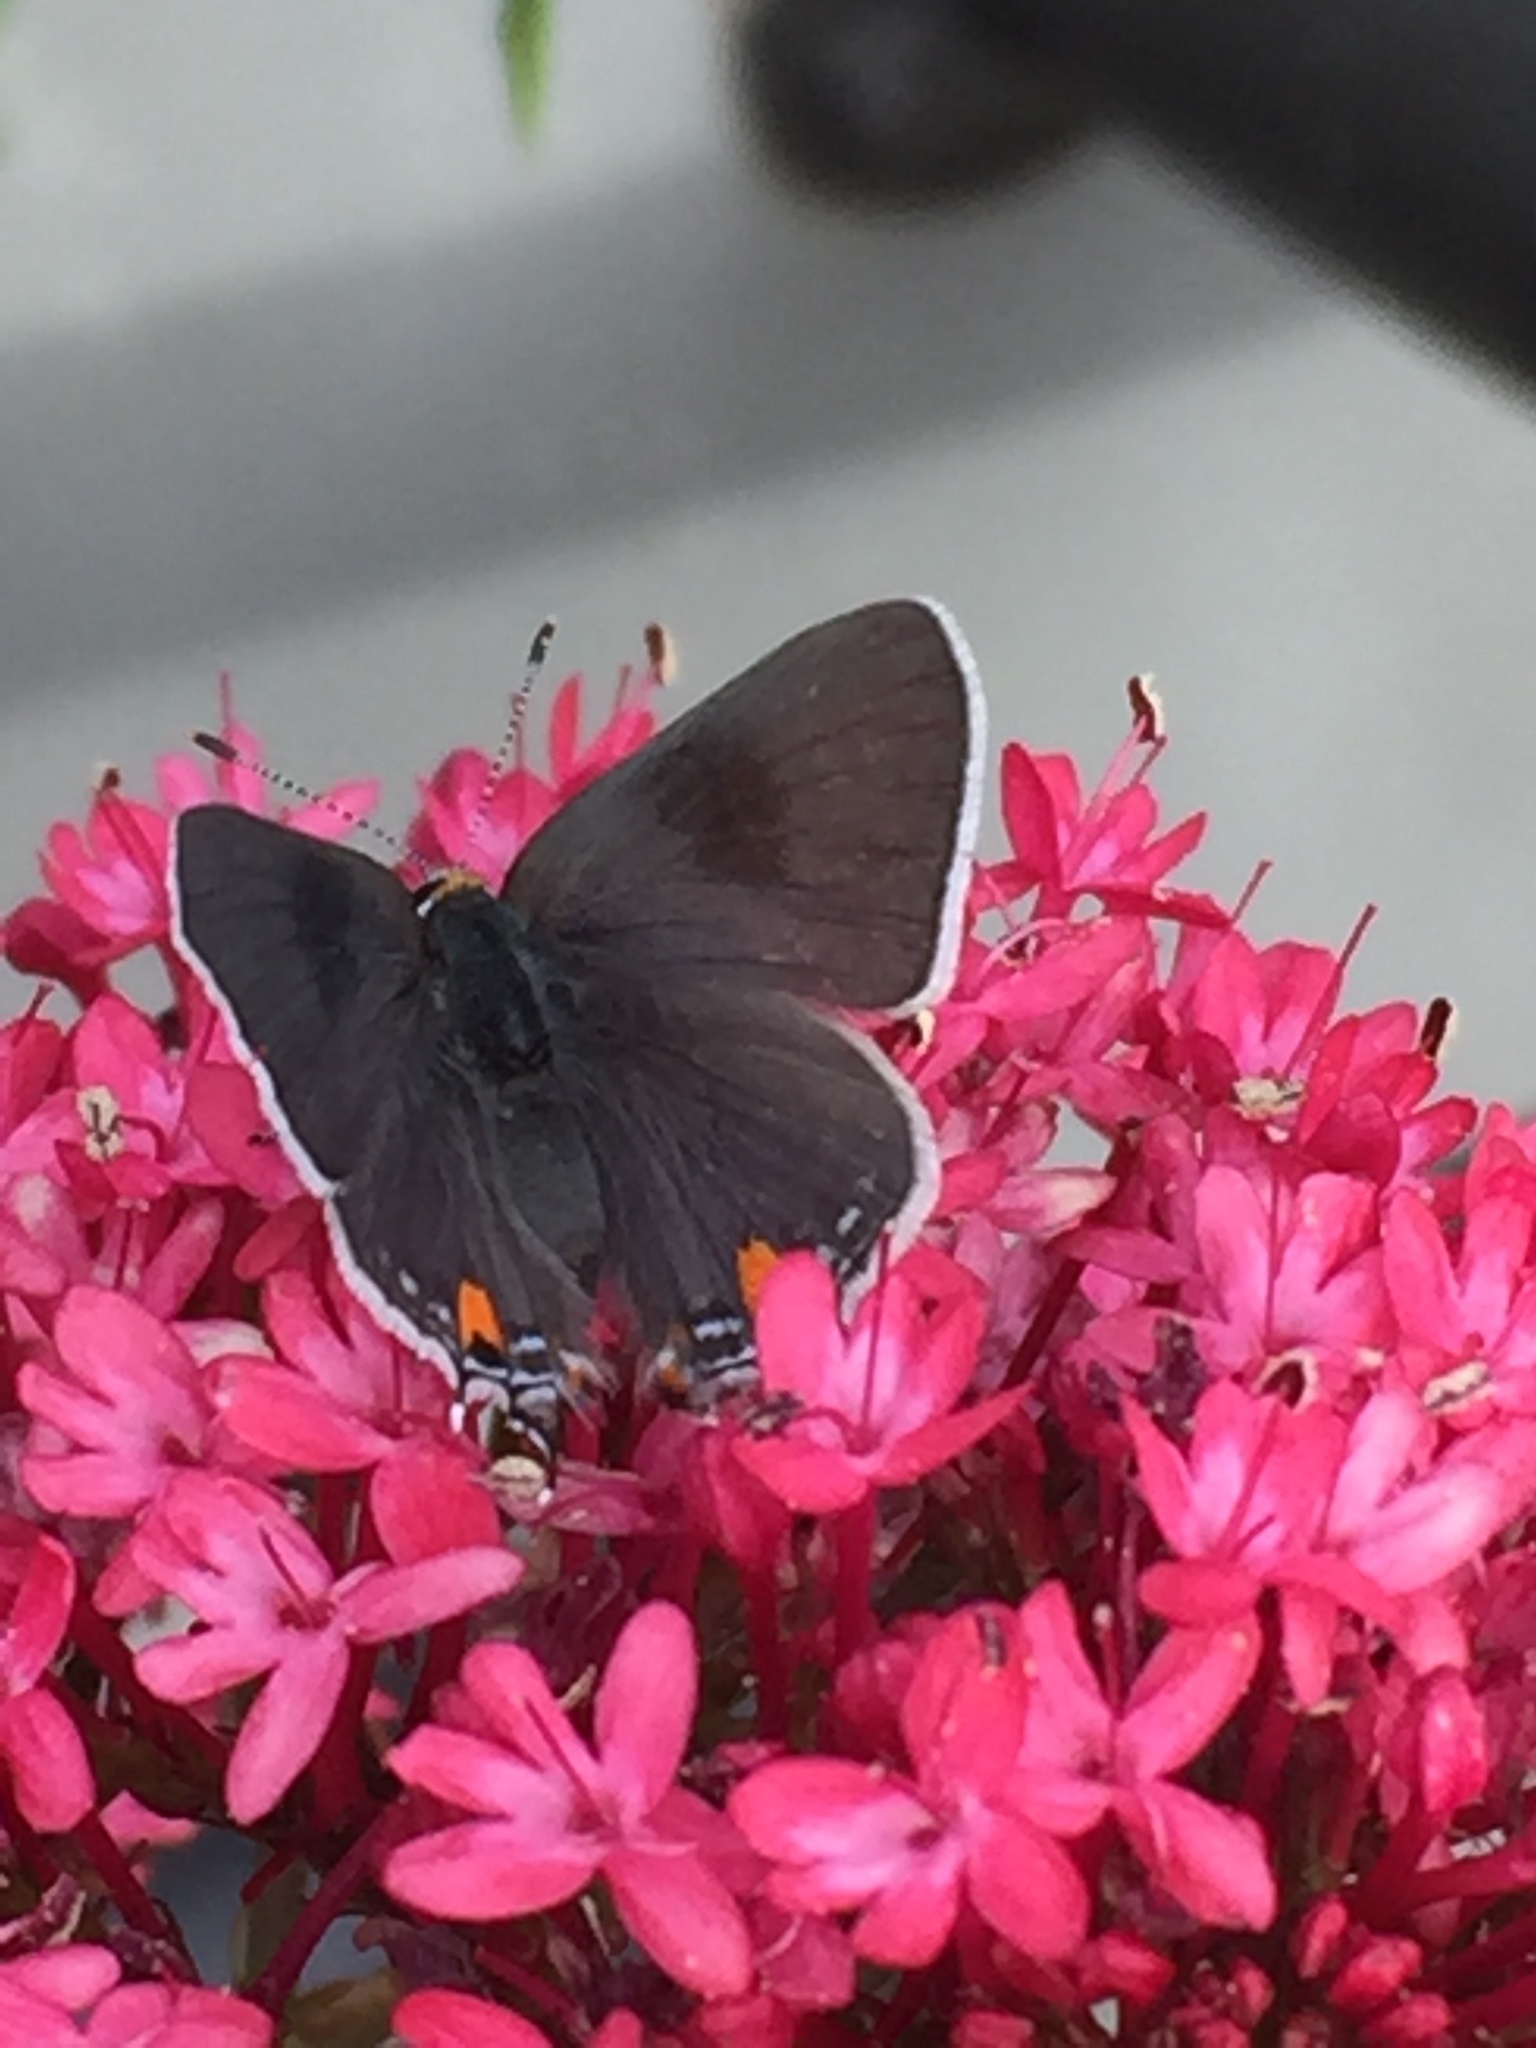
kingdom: Animalia
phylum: Arthropoda
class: Insecta
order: Lepidoptera
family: Lycaenidae
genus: Strymon
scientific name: Strymon melinus
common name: Gray hairstreak
